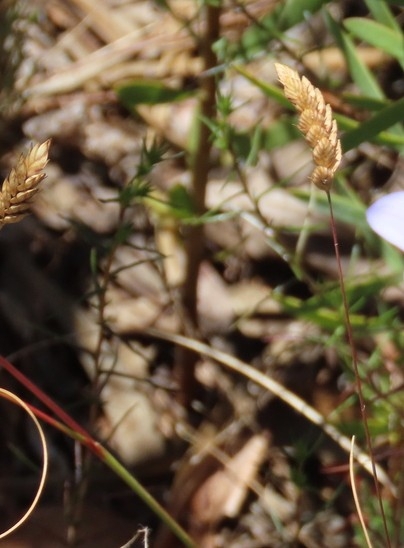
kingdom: Plantae
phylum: Tracheophyta
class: Liliopsida
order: Poales
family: Poaceae
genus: Tribolium
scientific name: Tribolium uniolae
